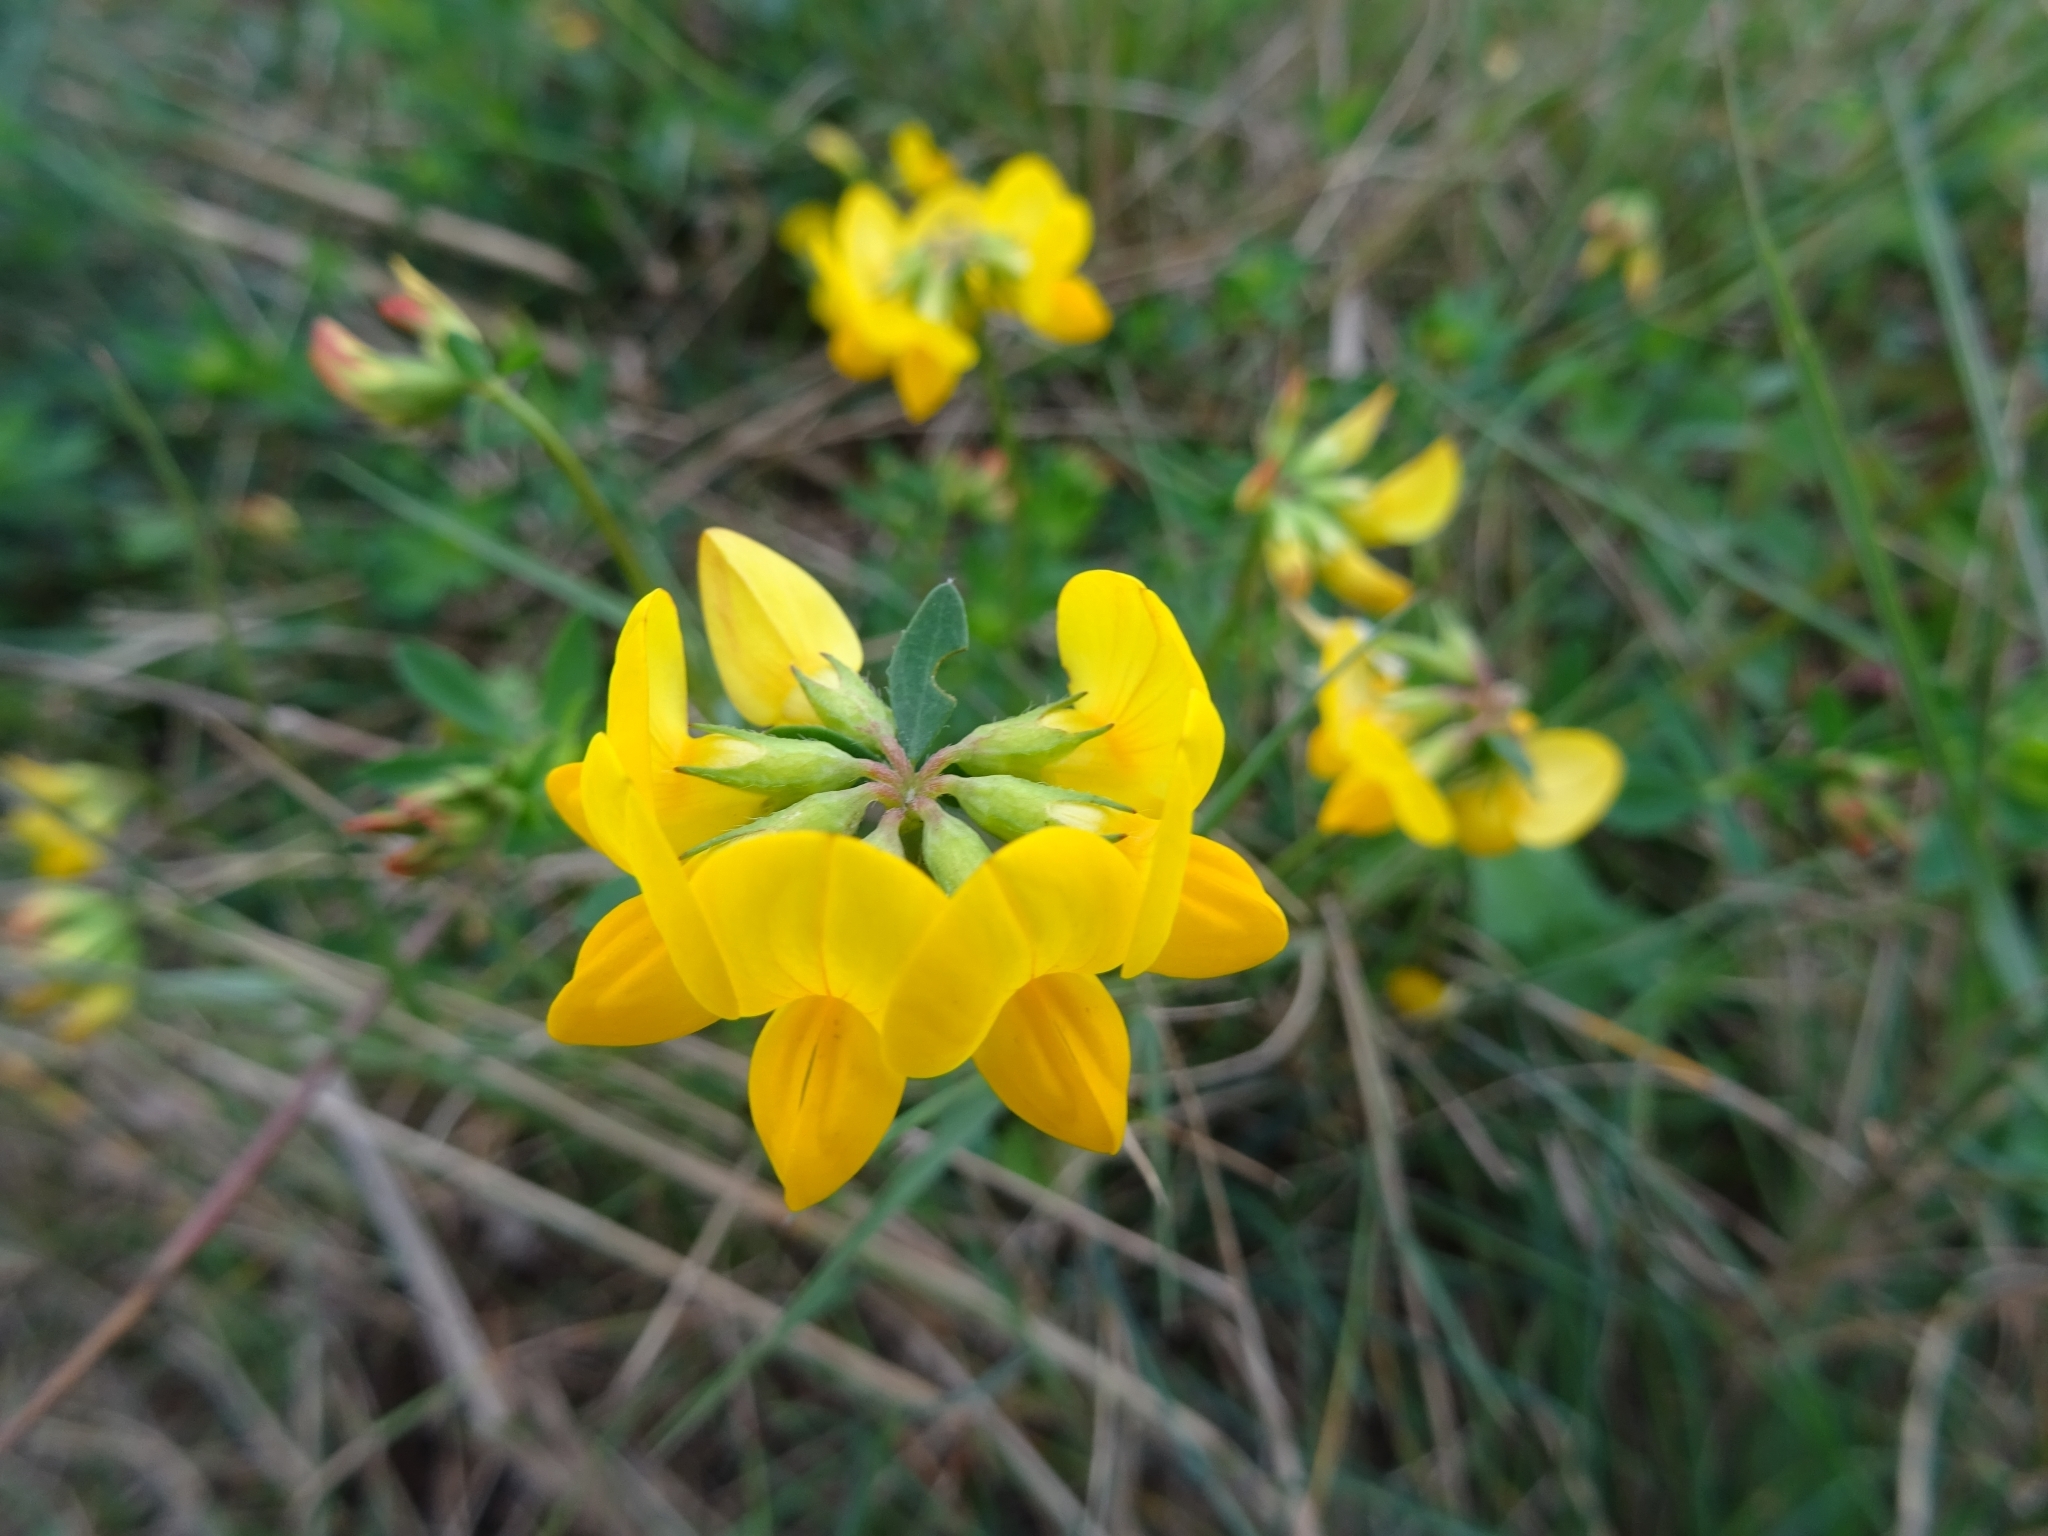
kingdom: Plantae
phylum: Tracheophyta
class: Magnoliopsida
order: Fabales
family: Fabaceae
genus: Lotus
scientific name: Lotus corniculatus
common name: Common bird's-foot-trefoil
